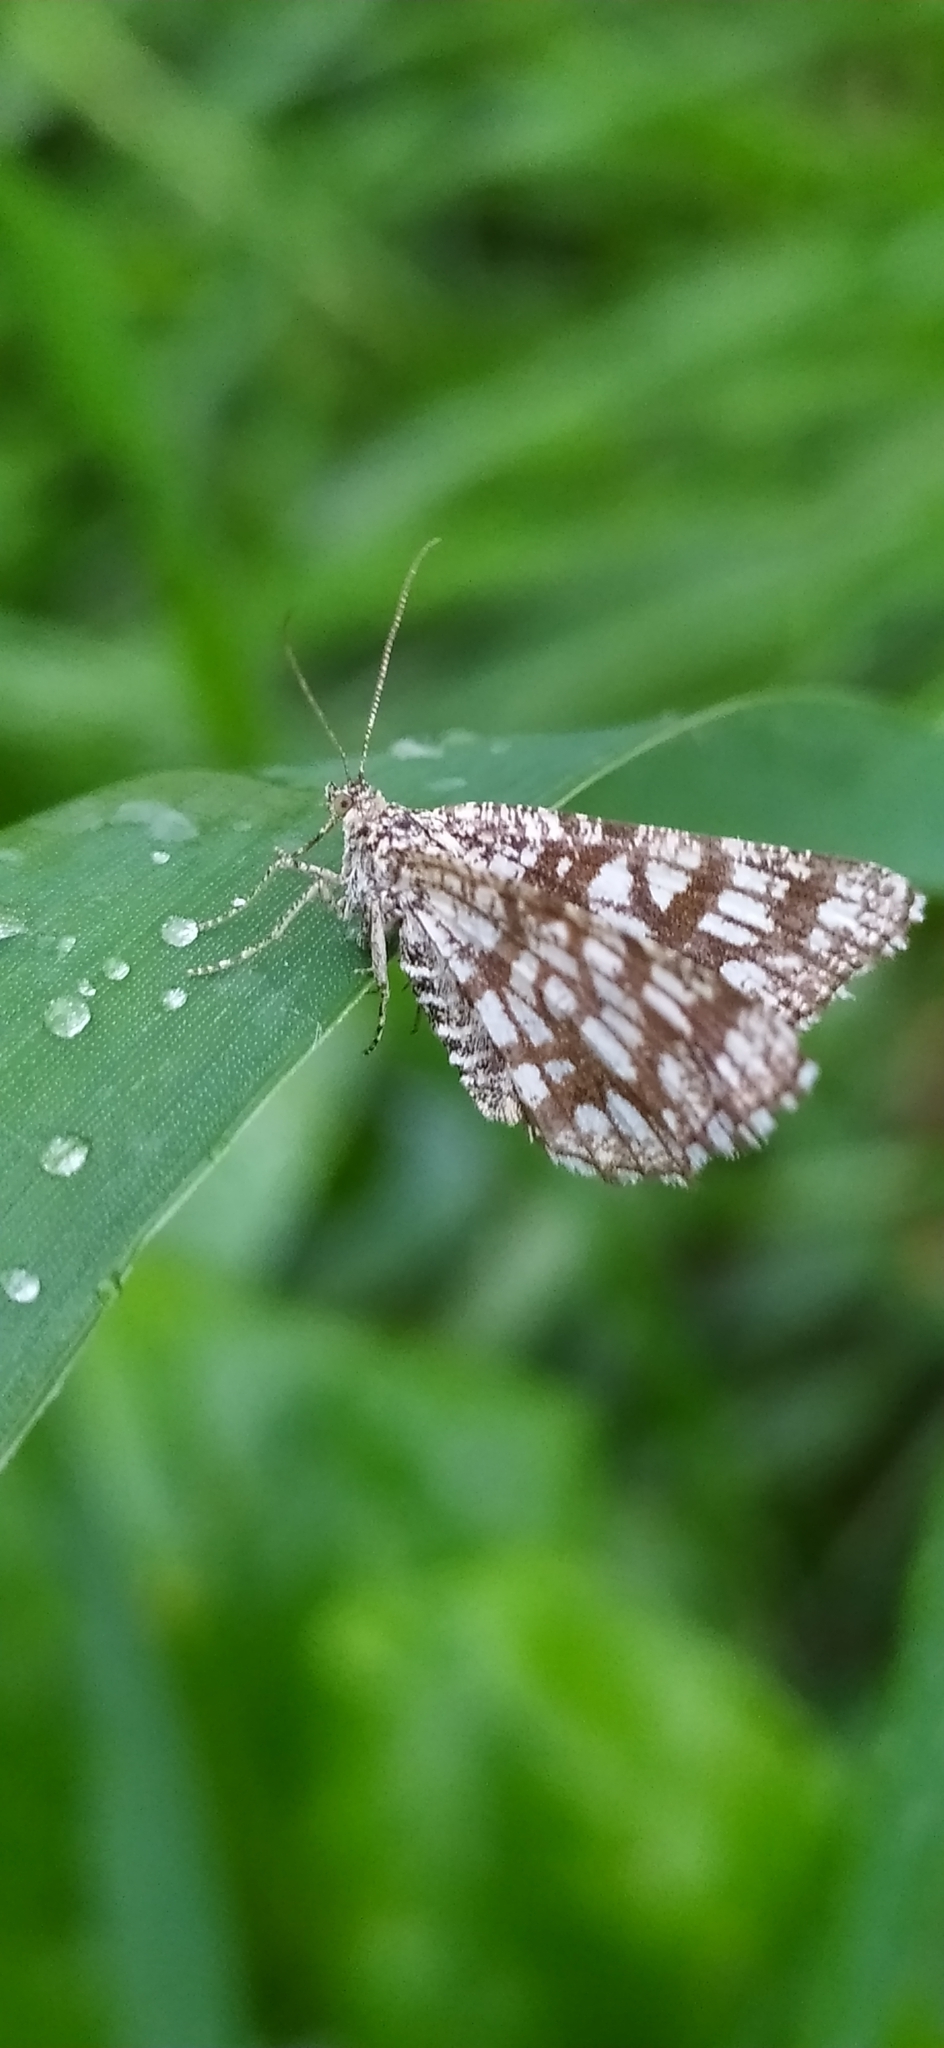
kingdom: Animalia
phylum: Arthropoda
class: Insecta
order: Lepidoptera
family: Geometridae
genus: Chiasmia
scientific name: Chiasmia clathrata
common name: Latticed heath
